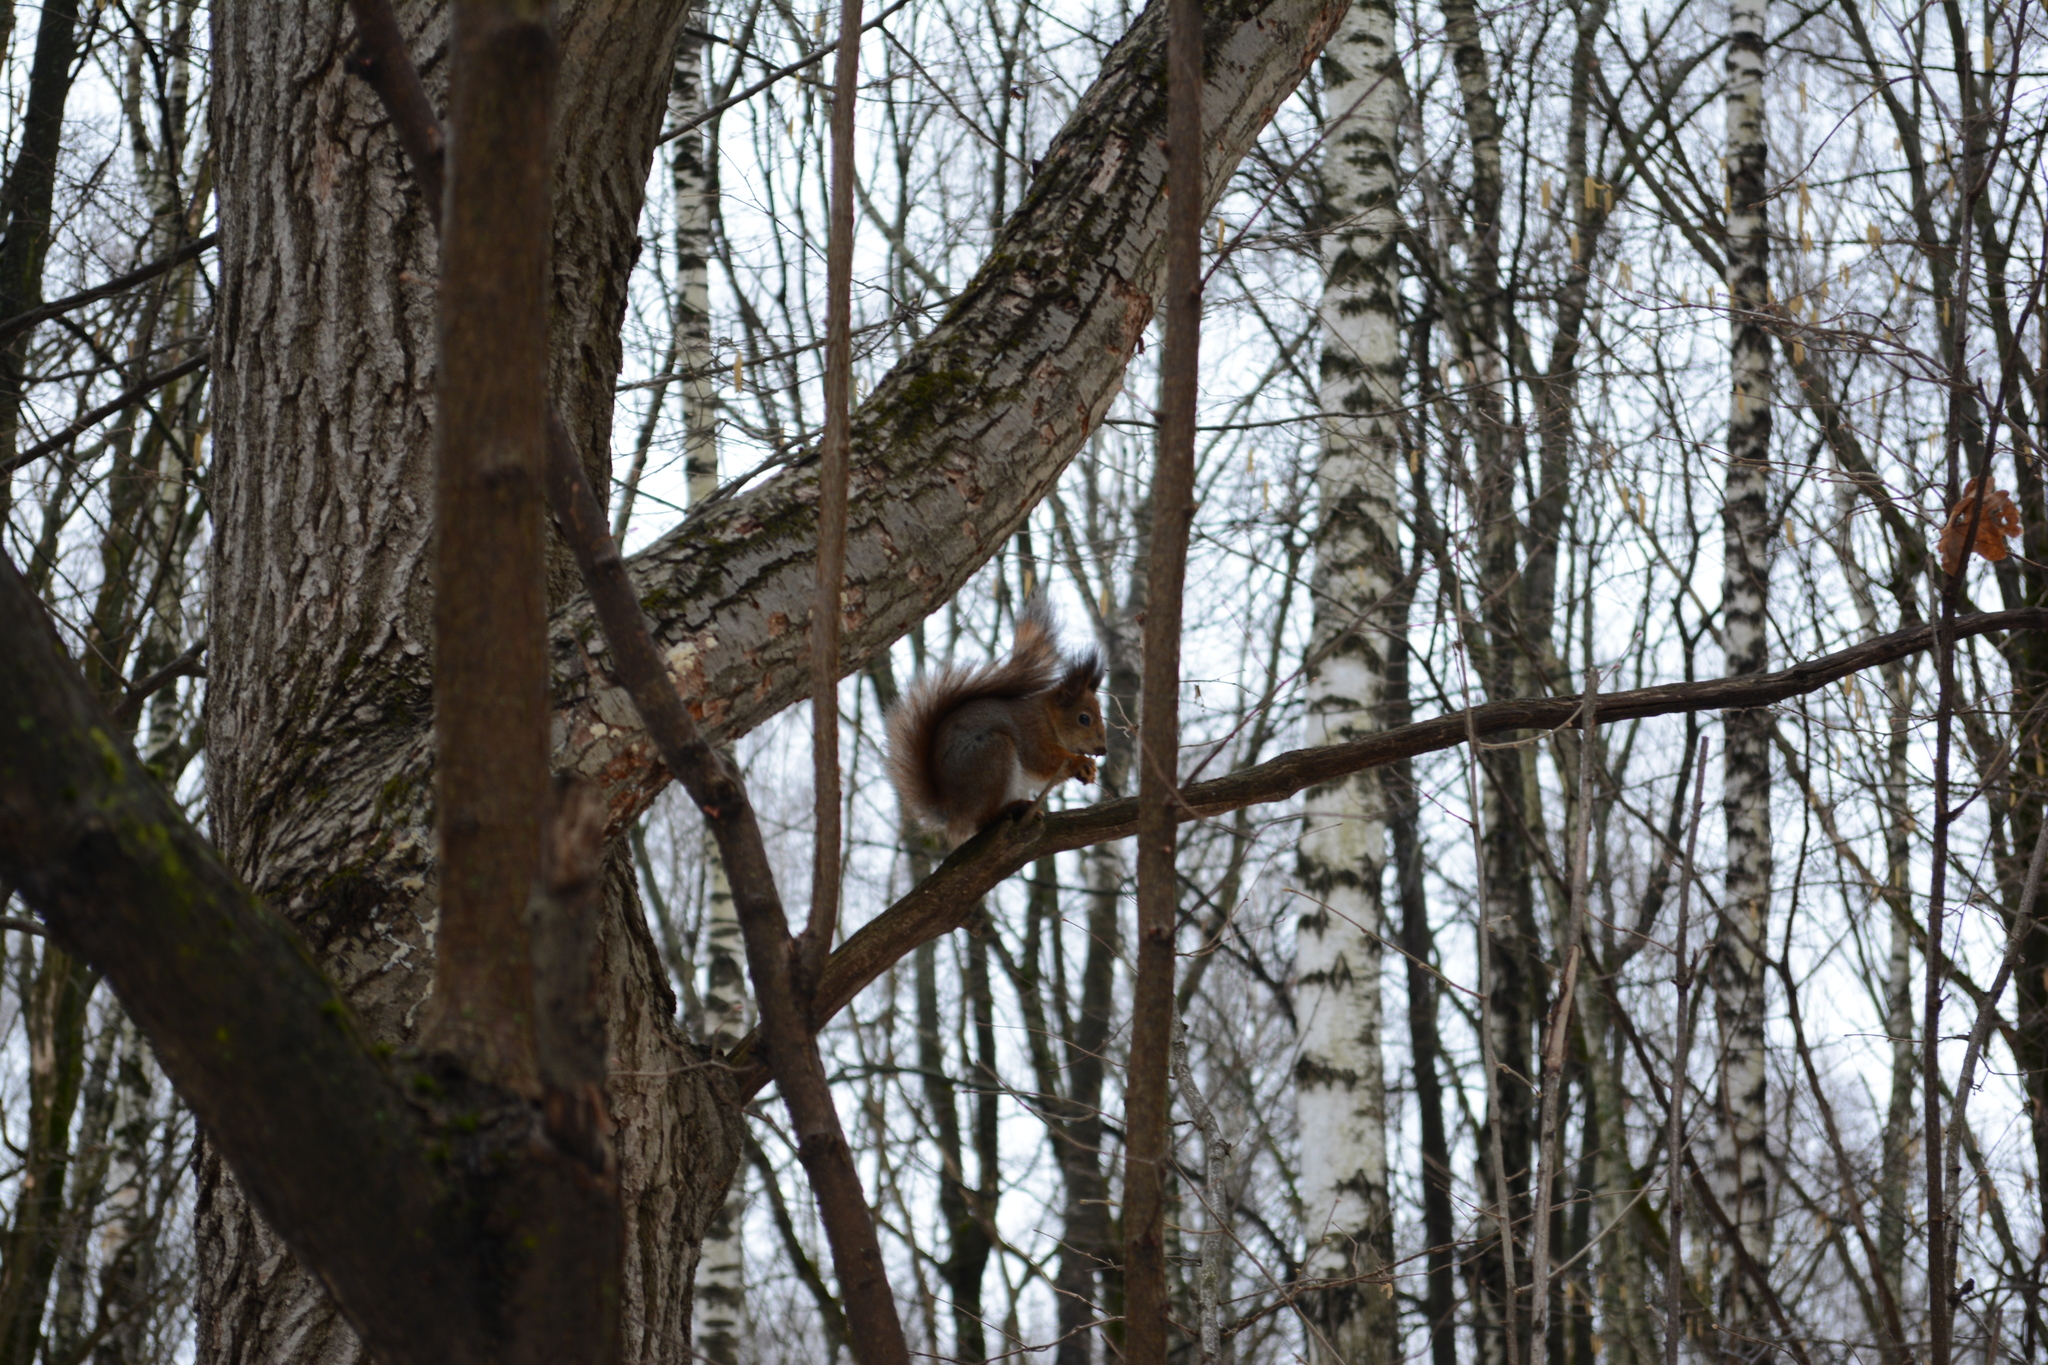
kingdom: Animalia
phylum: Chordata
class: Mammalia
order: Rodentia
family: Sciuridae
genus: Sciurus
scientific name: Sciurus vulgaris
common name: Eurasian red squirrel
